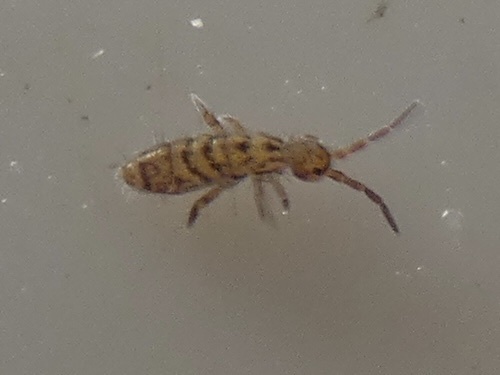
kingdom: Animalia
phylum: Arthropoda
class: Collembola
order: Entomobryomorpha
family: Orchesellidae
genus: Orchesella
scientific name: Orchesella villosa
